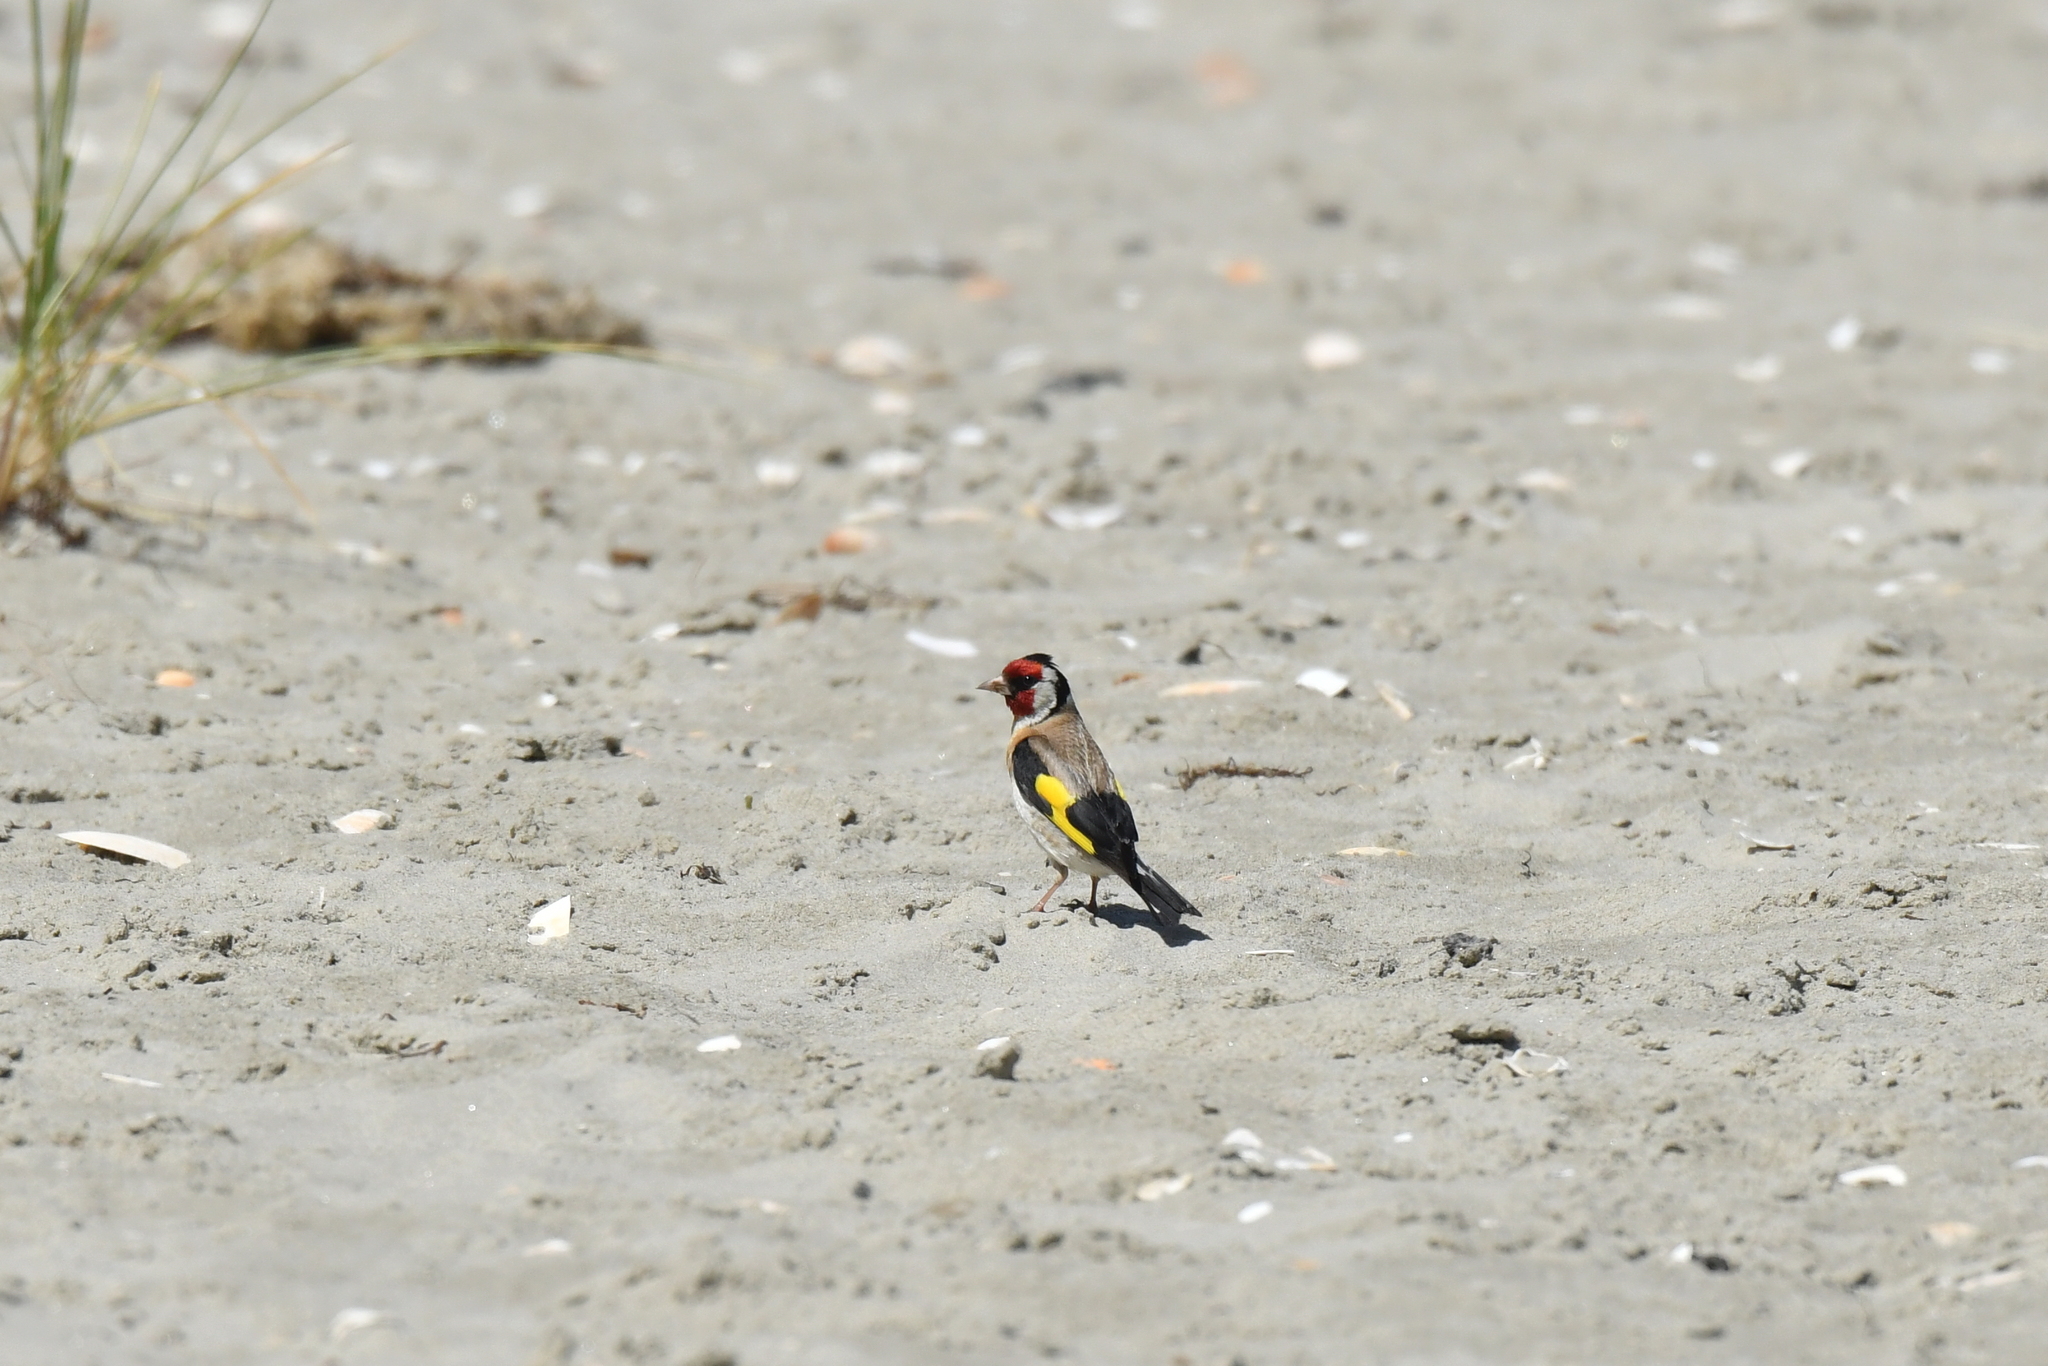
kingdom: Animalia
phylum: Chordata
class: Aves
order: Passeriformes
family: Fringillidae
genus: Carduelis
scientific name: Carduelis carduelis
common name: European goldfinch
